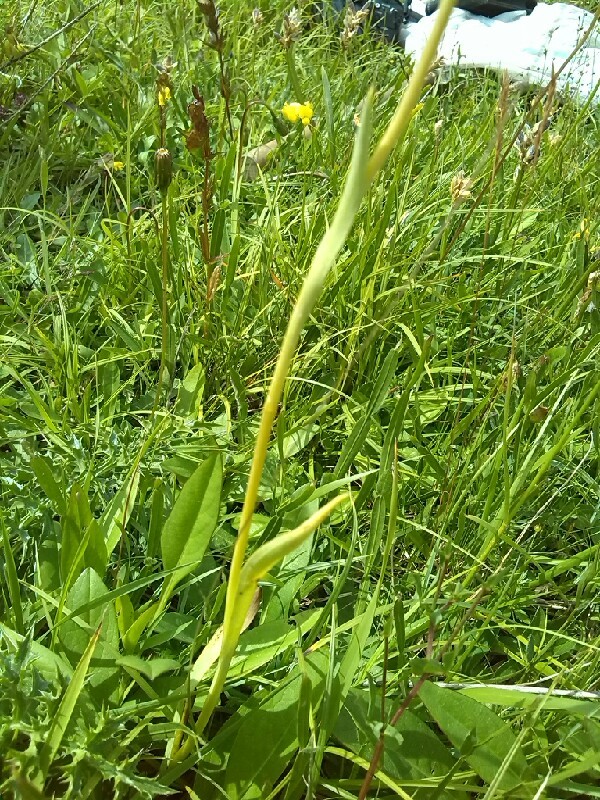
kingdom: Plantae
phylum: Tracheophyta
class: Liliopsida
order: Asparagales
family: Orchidaceae
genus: Traunsteinera
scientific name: Traunsteinera globosa
